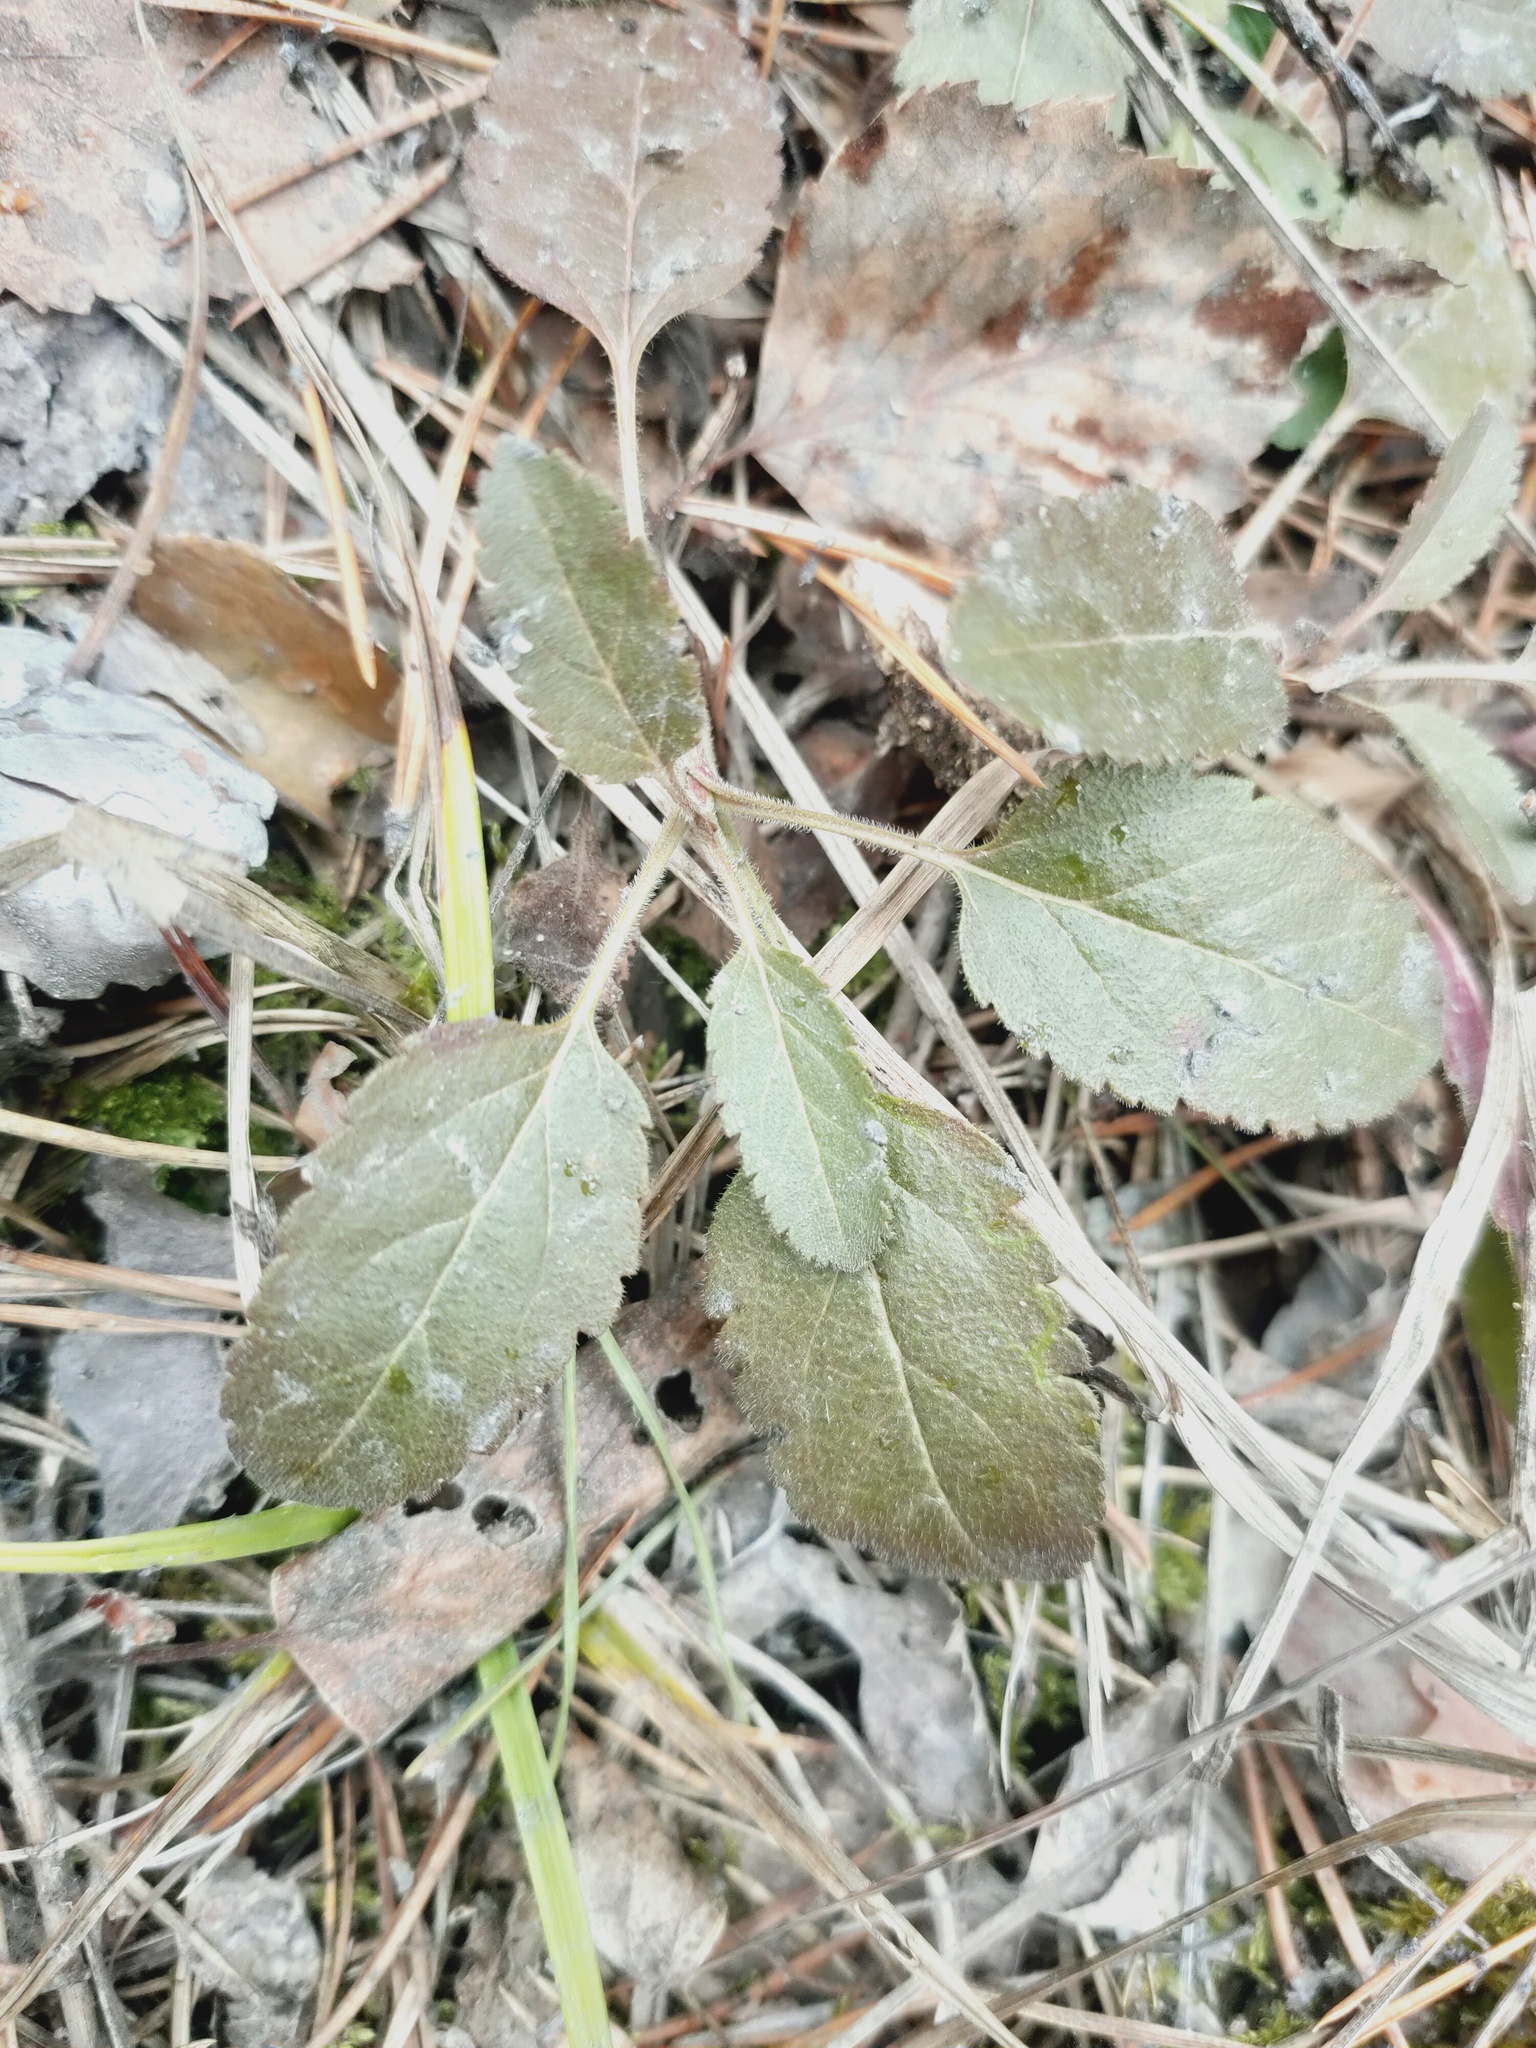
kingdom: Plantae
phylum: Tracheophyta
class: Magnoliopsida
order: Lamiales
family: Plantaginaceae
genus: Veronica
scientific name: Veronica spicata
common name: Spiked speedwell
